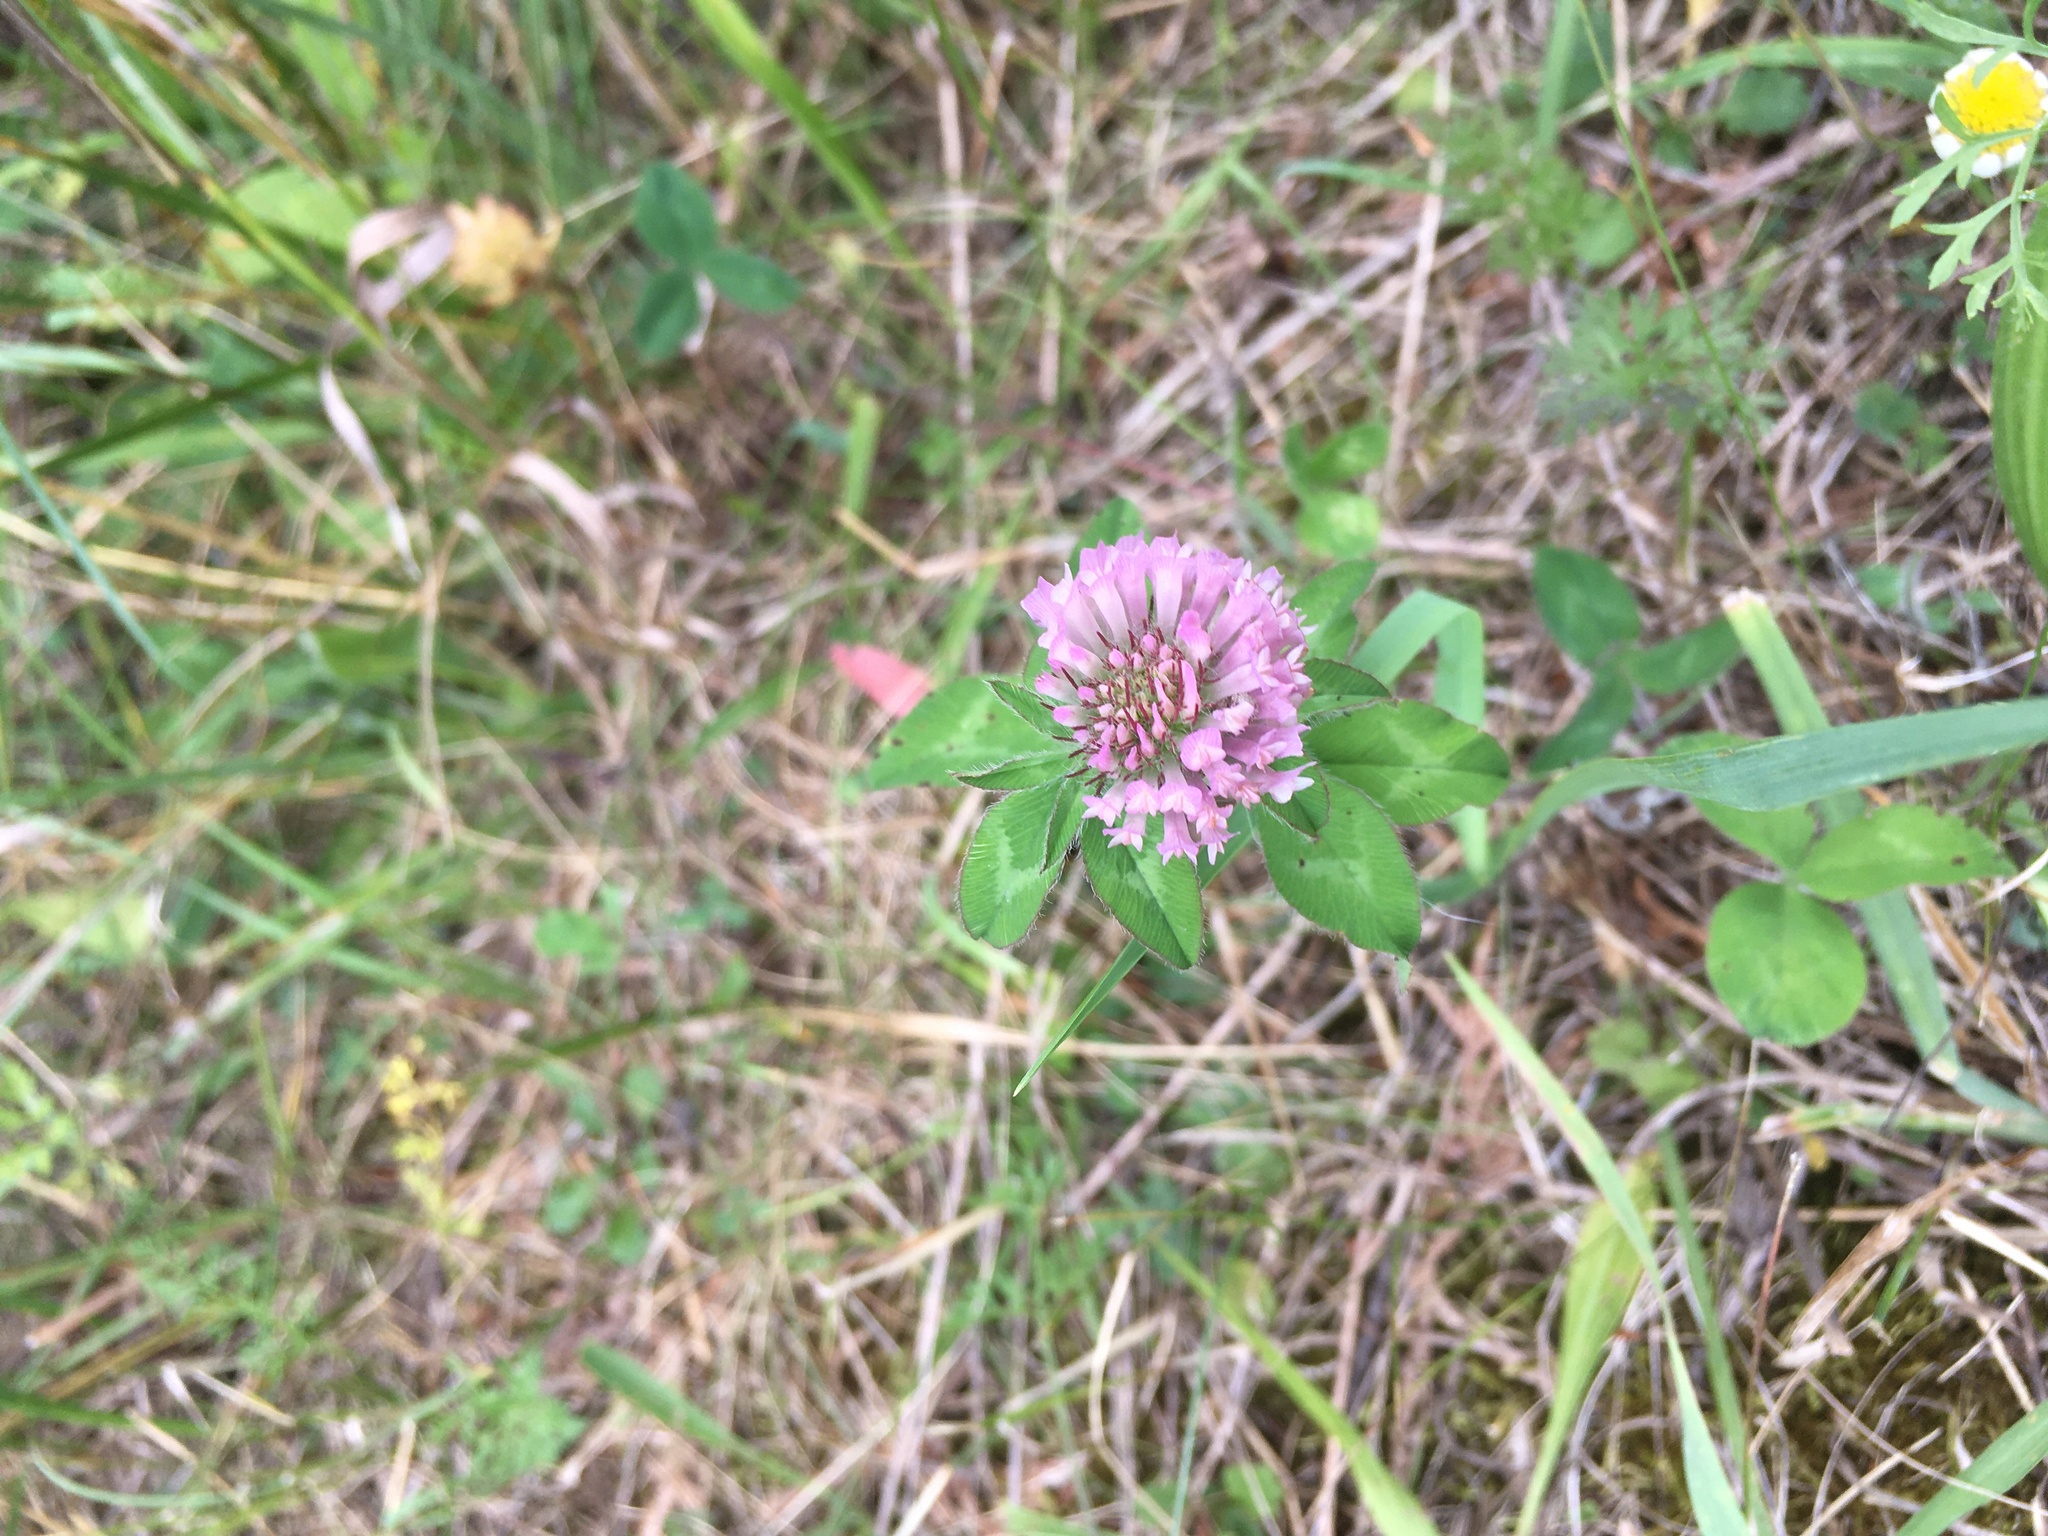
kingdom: Plantae
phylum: Tracheophyta
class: Magnoliopsida
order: Fabales
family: Fabaceae
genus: Trifolium
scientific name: Trifolium pratense
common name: Red clover
